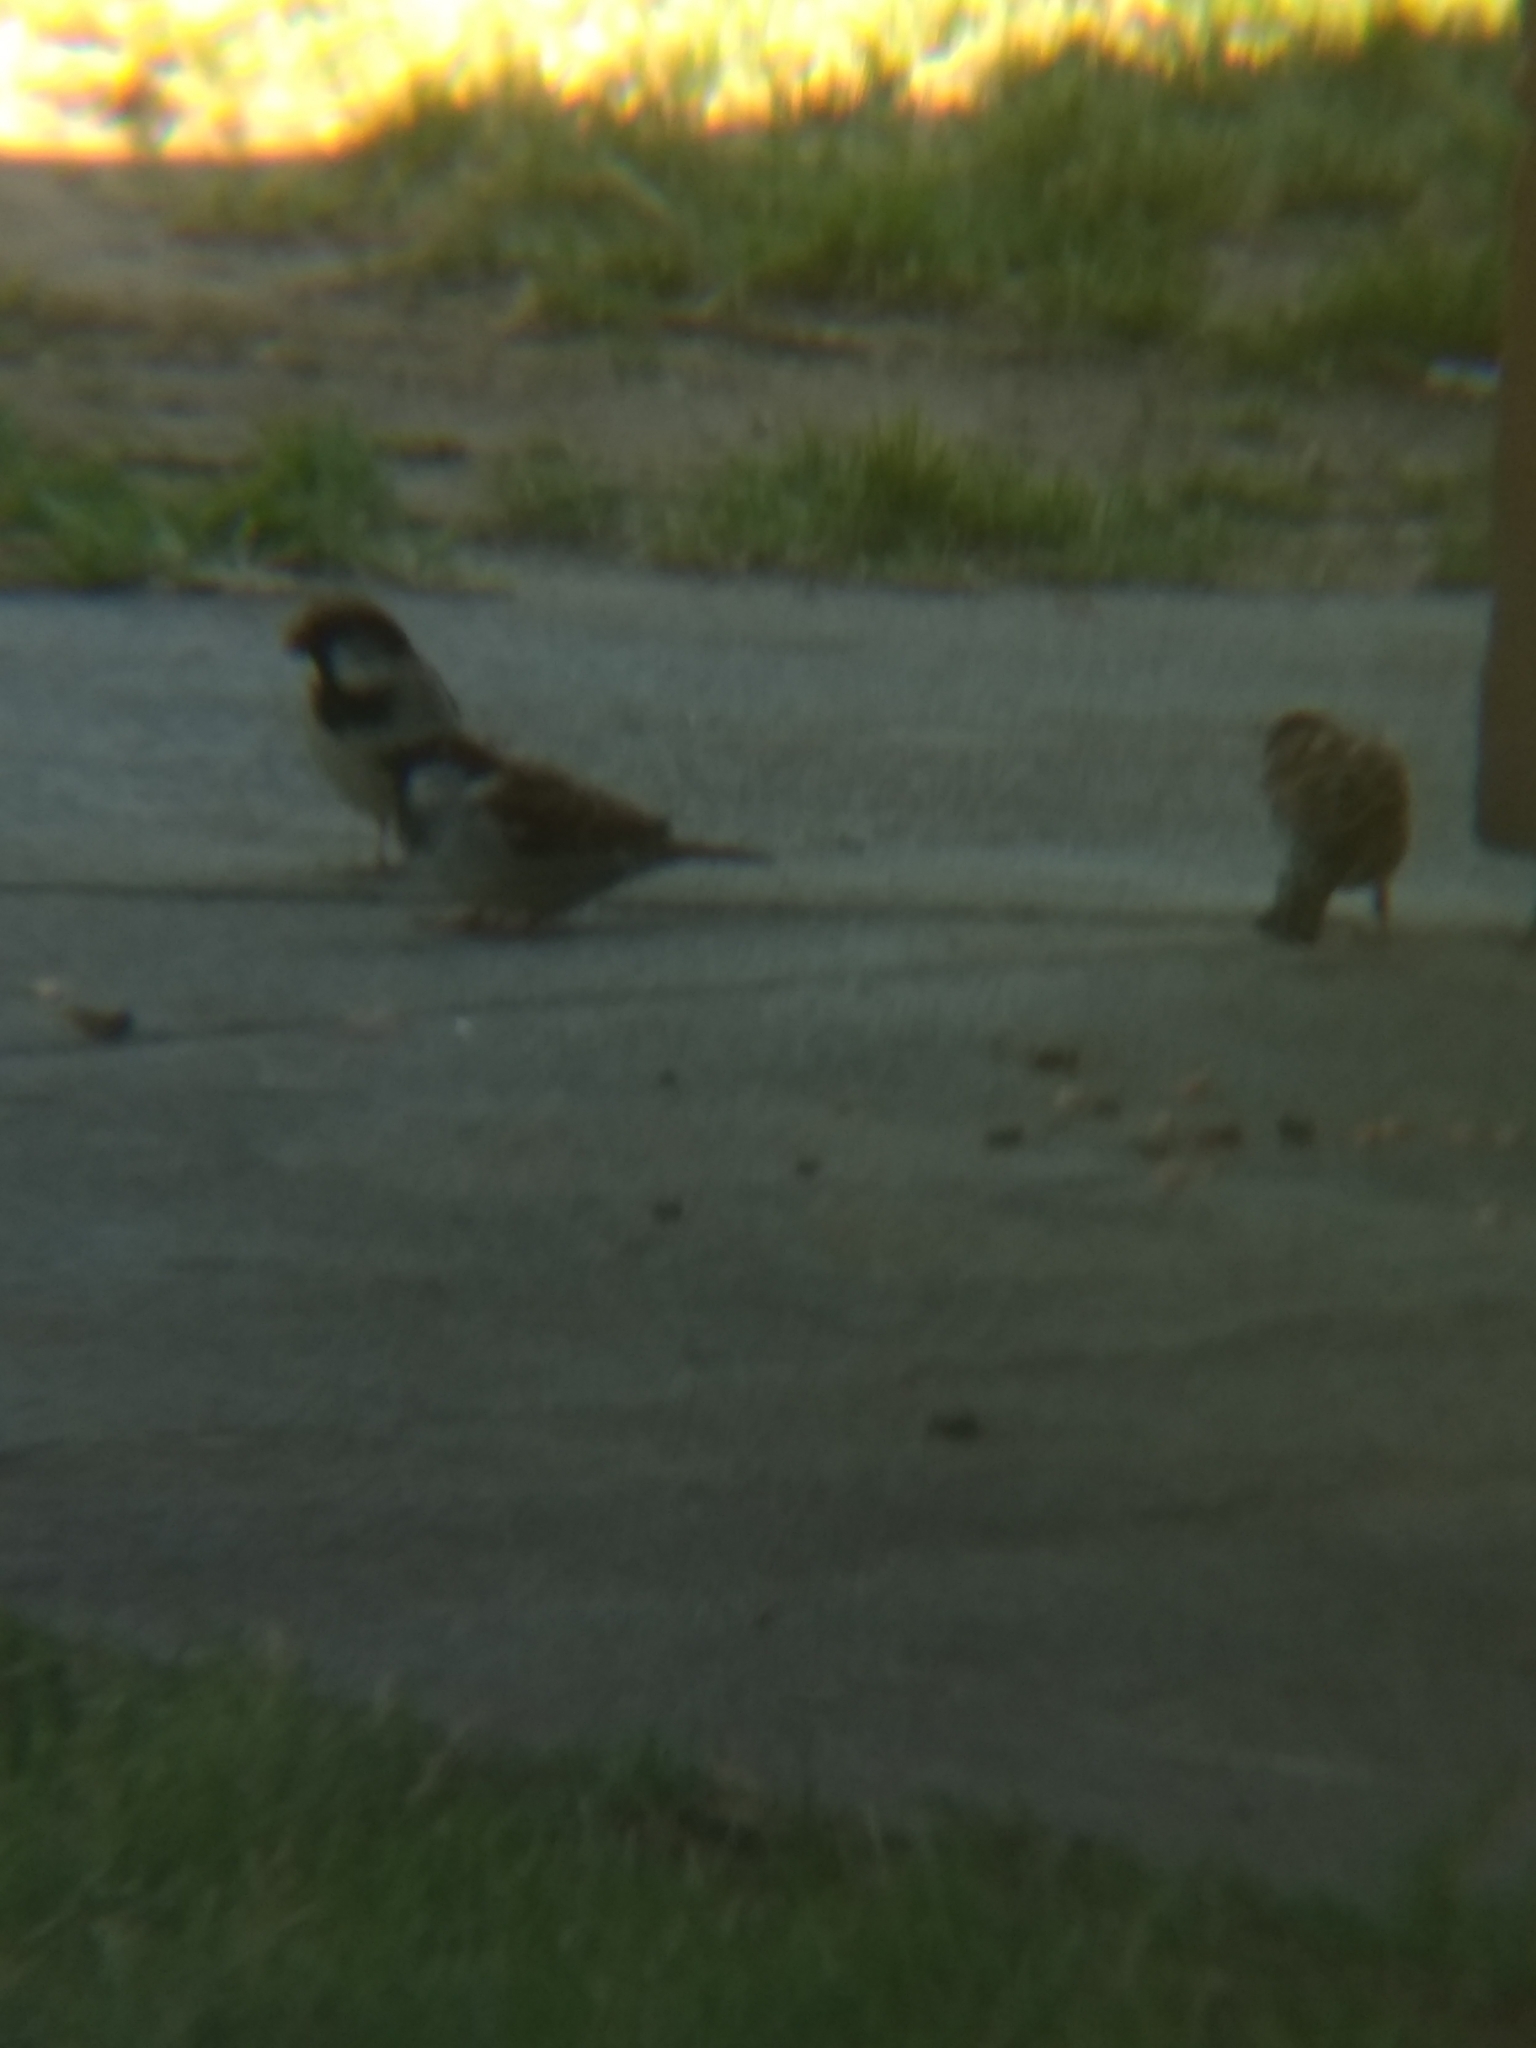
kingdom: Animalia
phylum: Chordata
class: Aves
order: Passeriformes
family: Passeridae
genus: Passer
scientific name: Passer domesticus
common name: House sparrow
